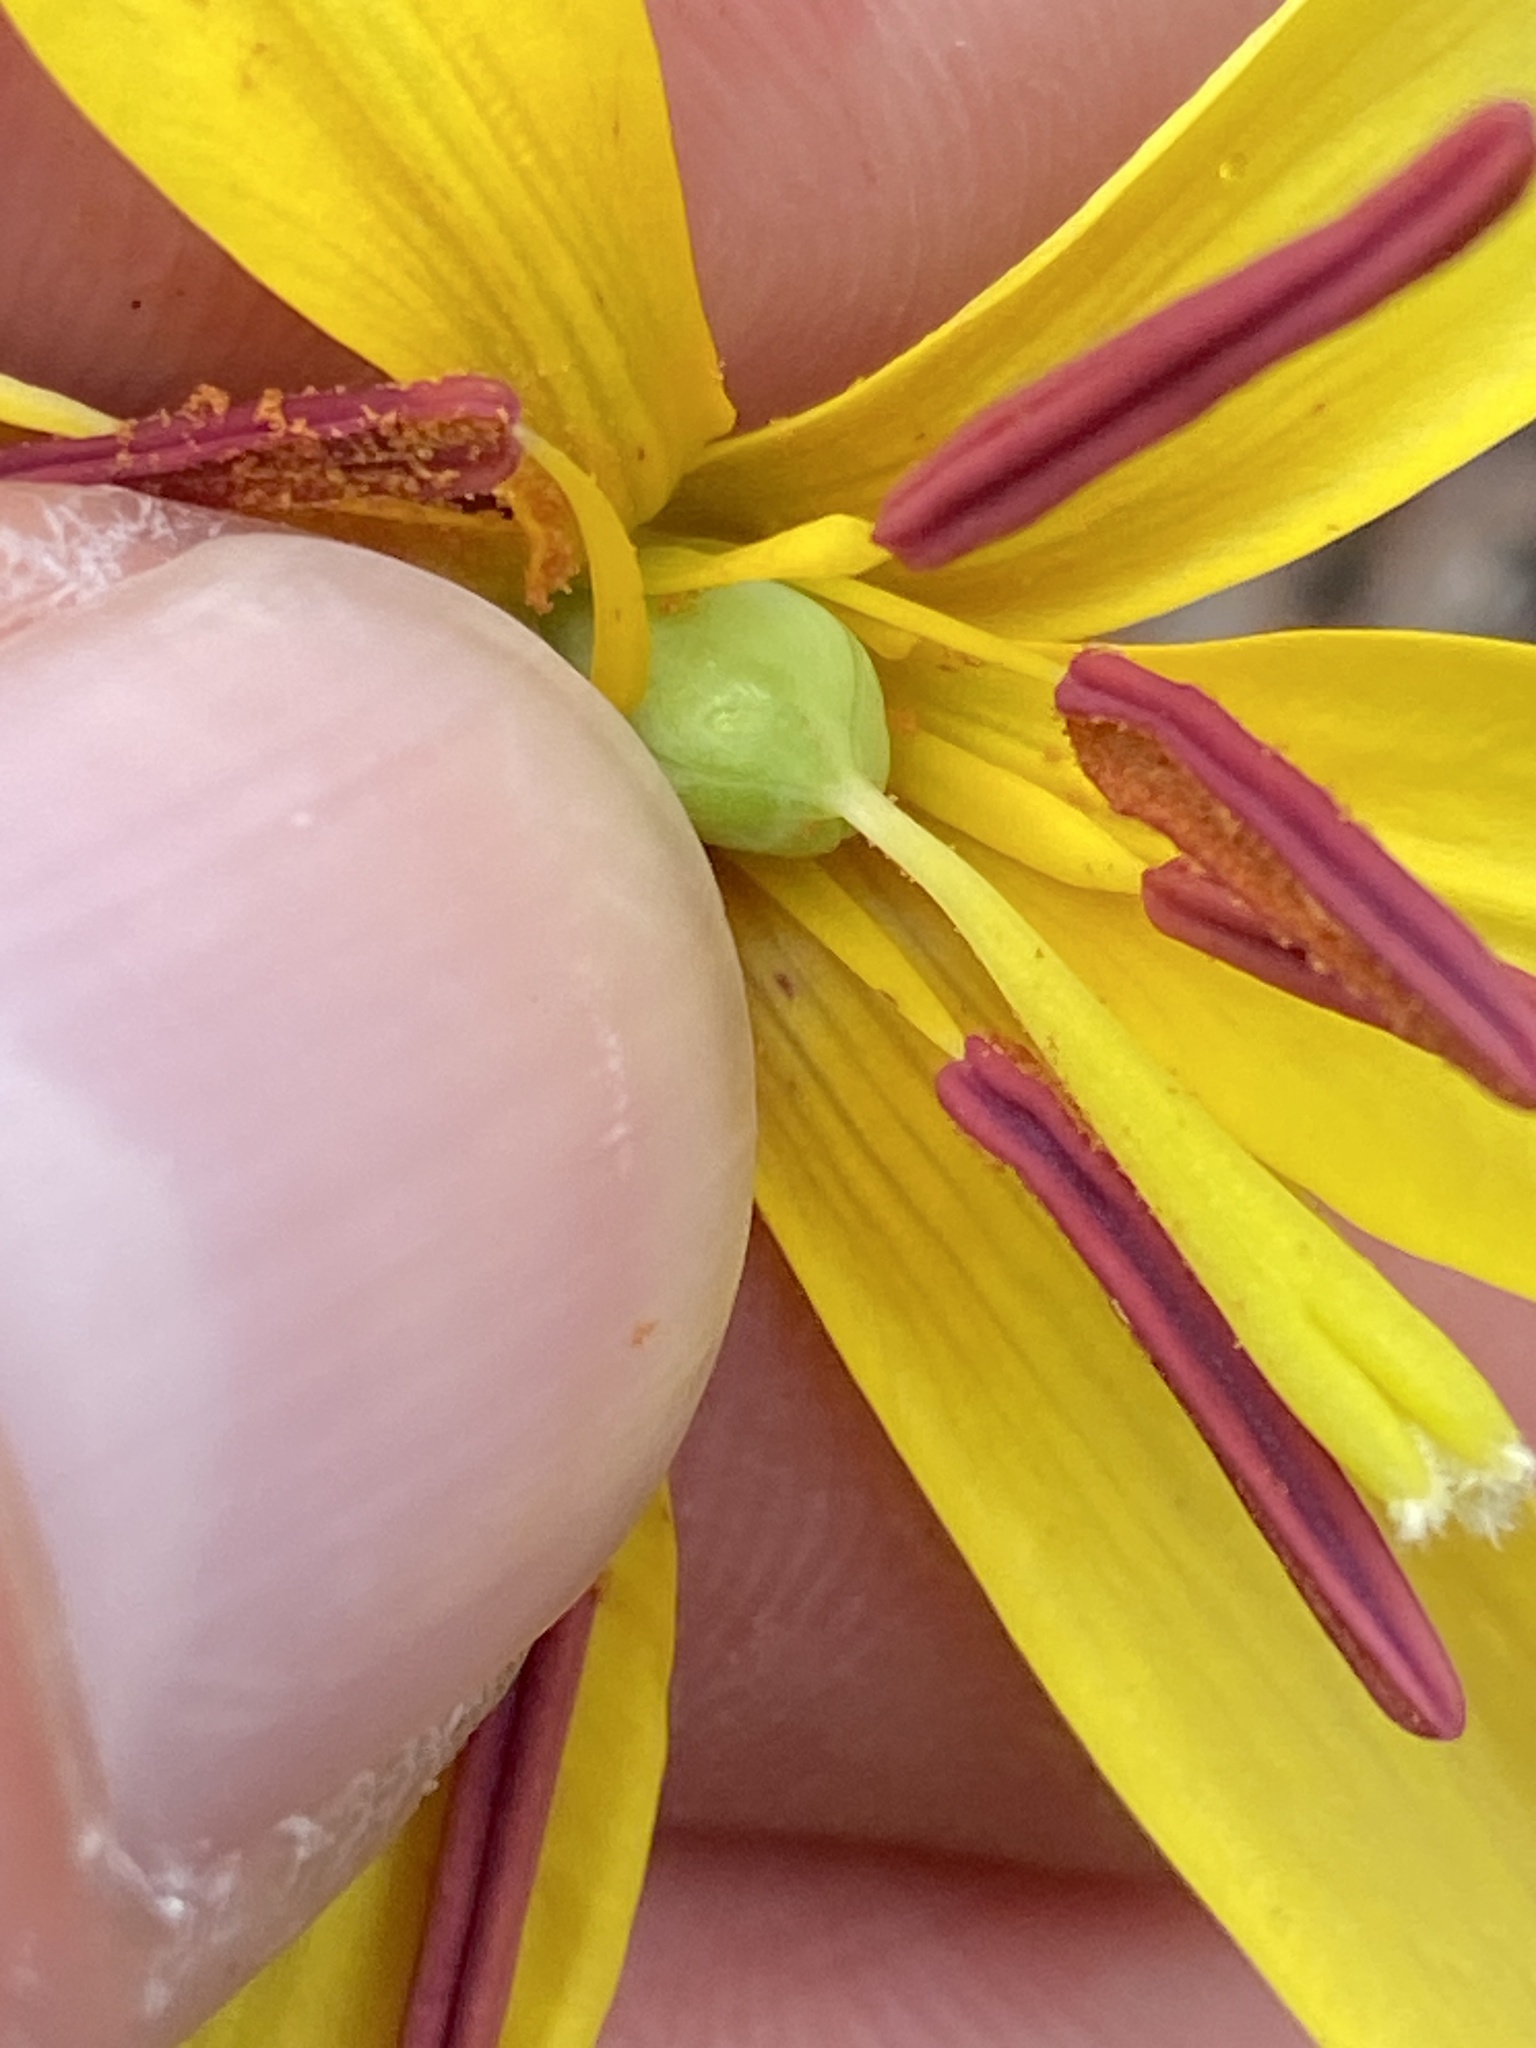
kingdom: Plantae
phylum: Tracheophyta
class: Liliopsida
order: Liliales
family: Liliaceae
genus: Erythronium
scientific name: Erythronium americanum
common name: Yellow adder's-tongue
